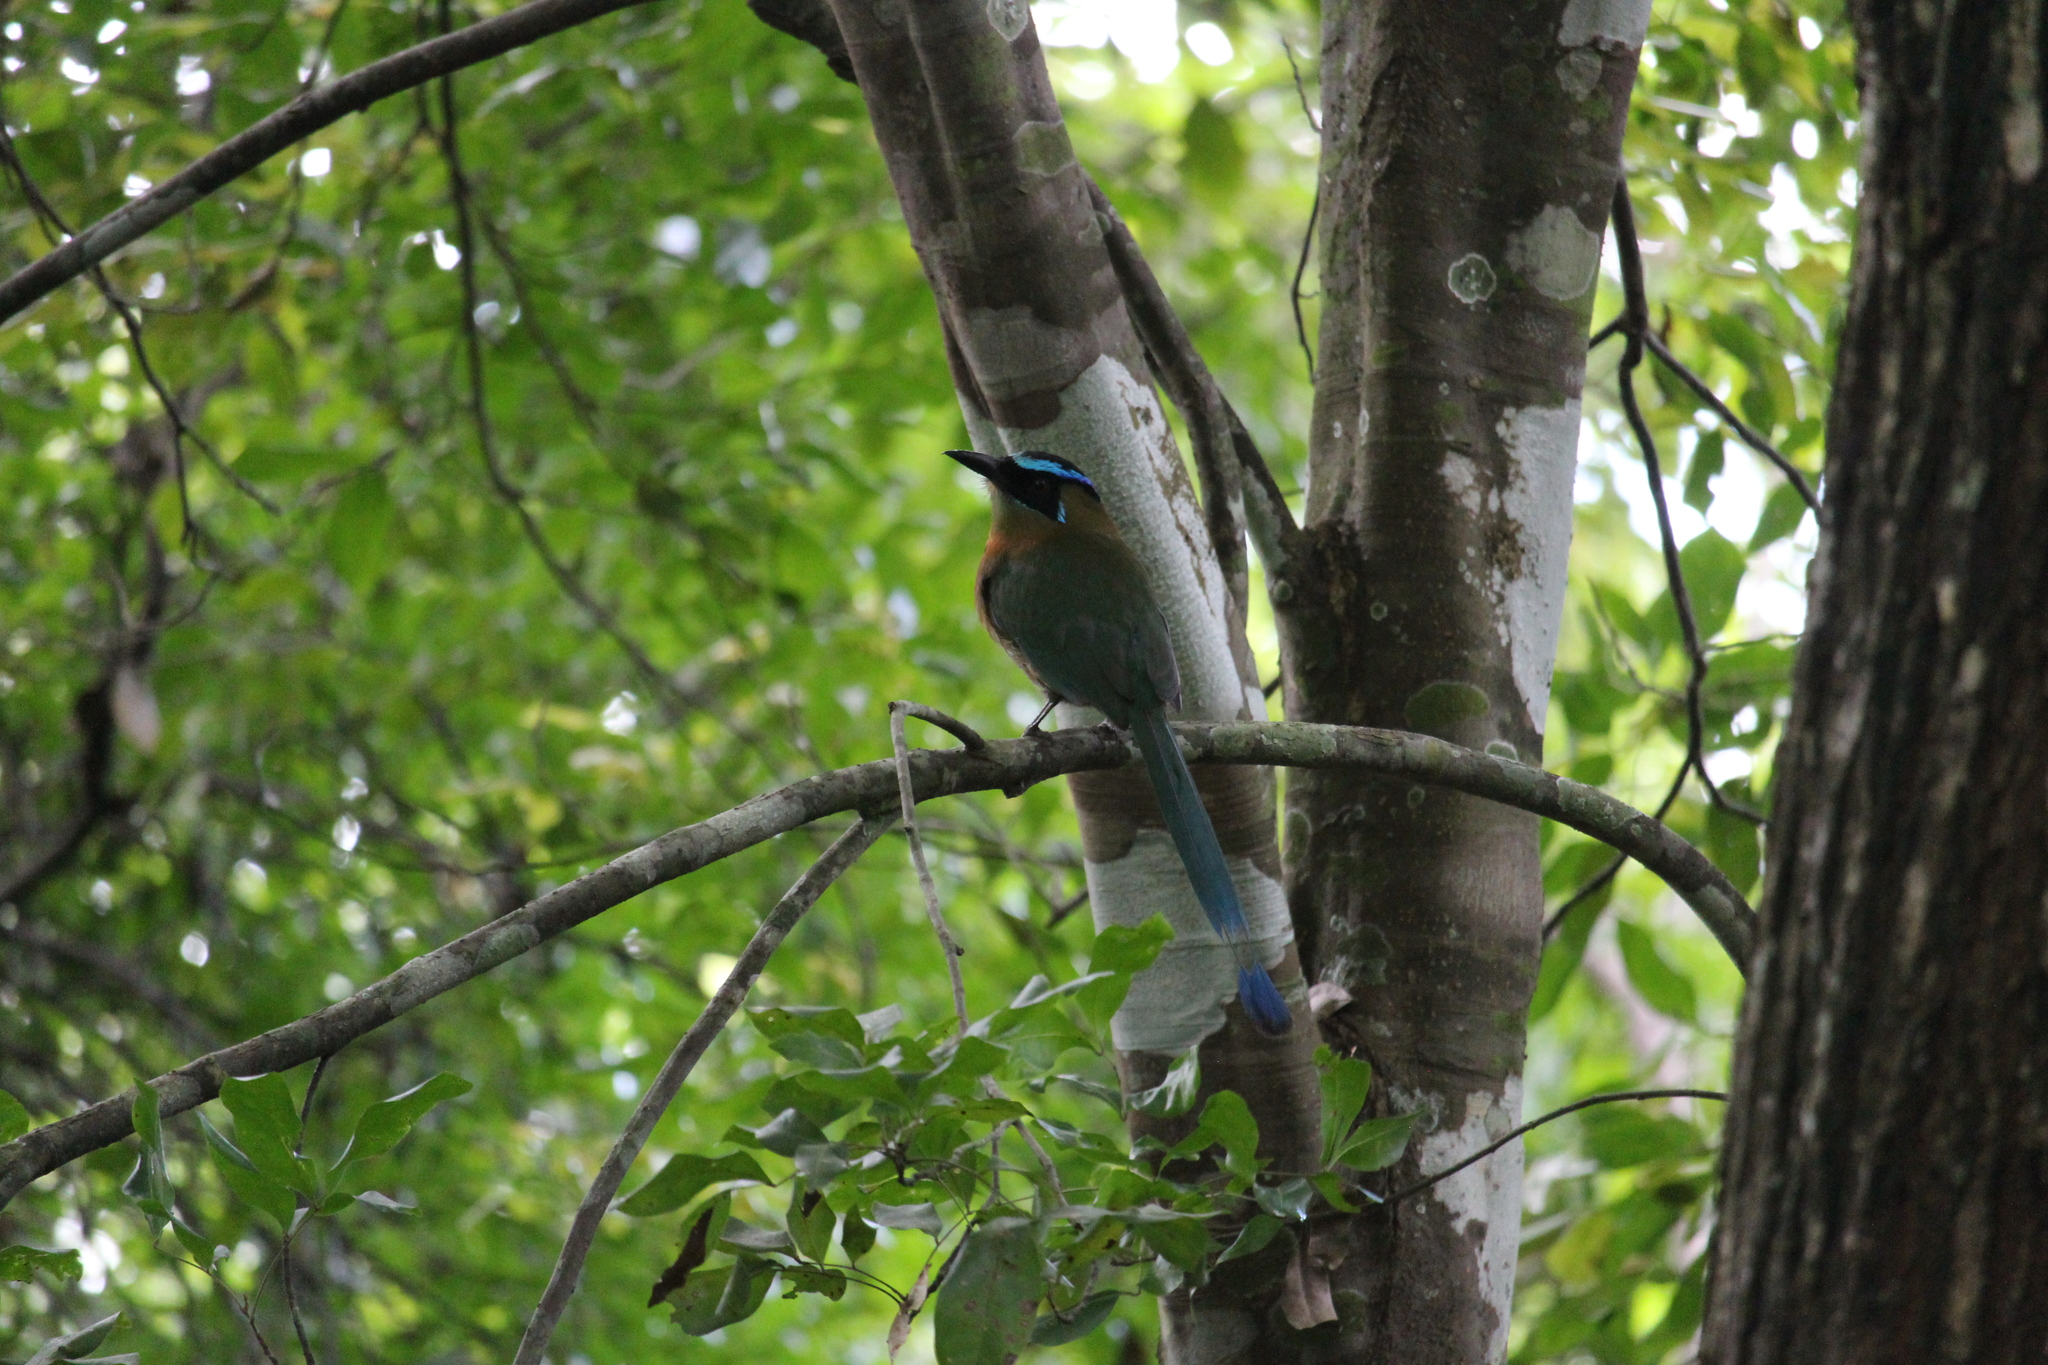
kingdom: Animalia
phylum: Chordata
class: Aves
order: Coraciiformes
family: Momotidae
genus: Momotus
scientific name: Momotus lessonii
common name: Lesson's motmot
